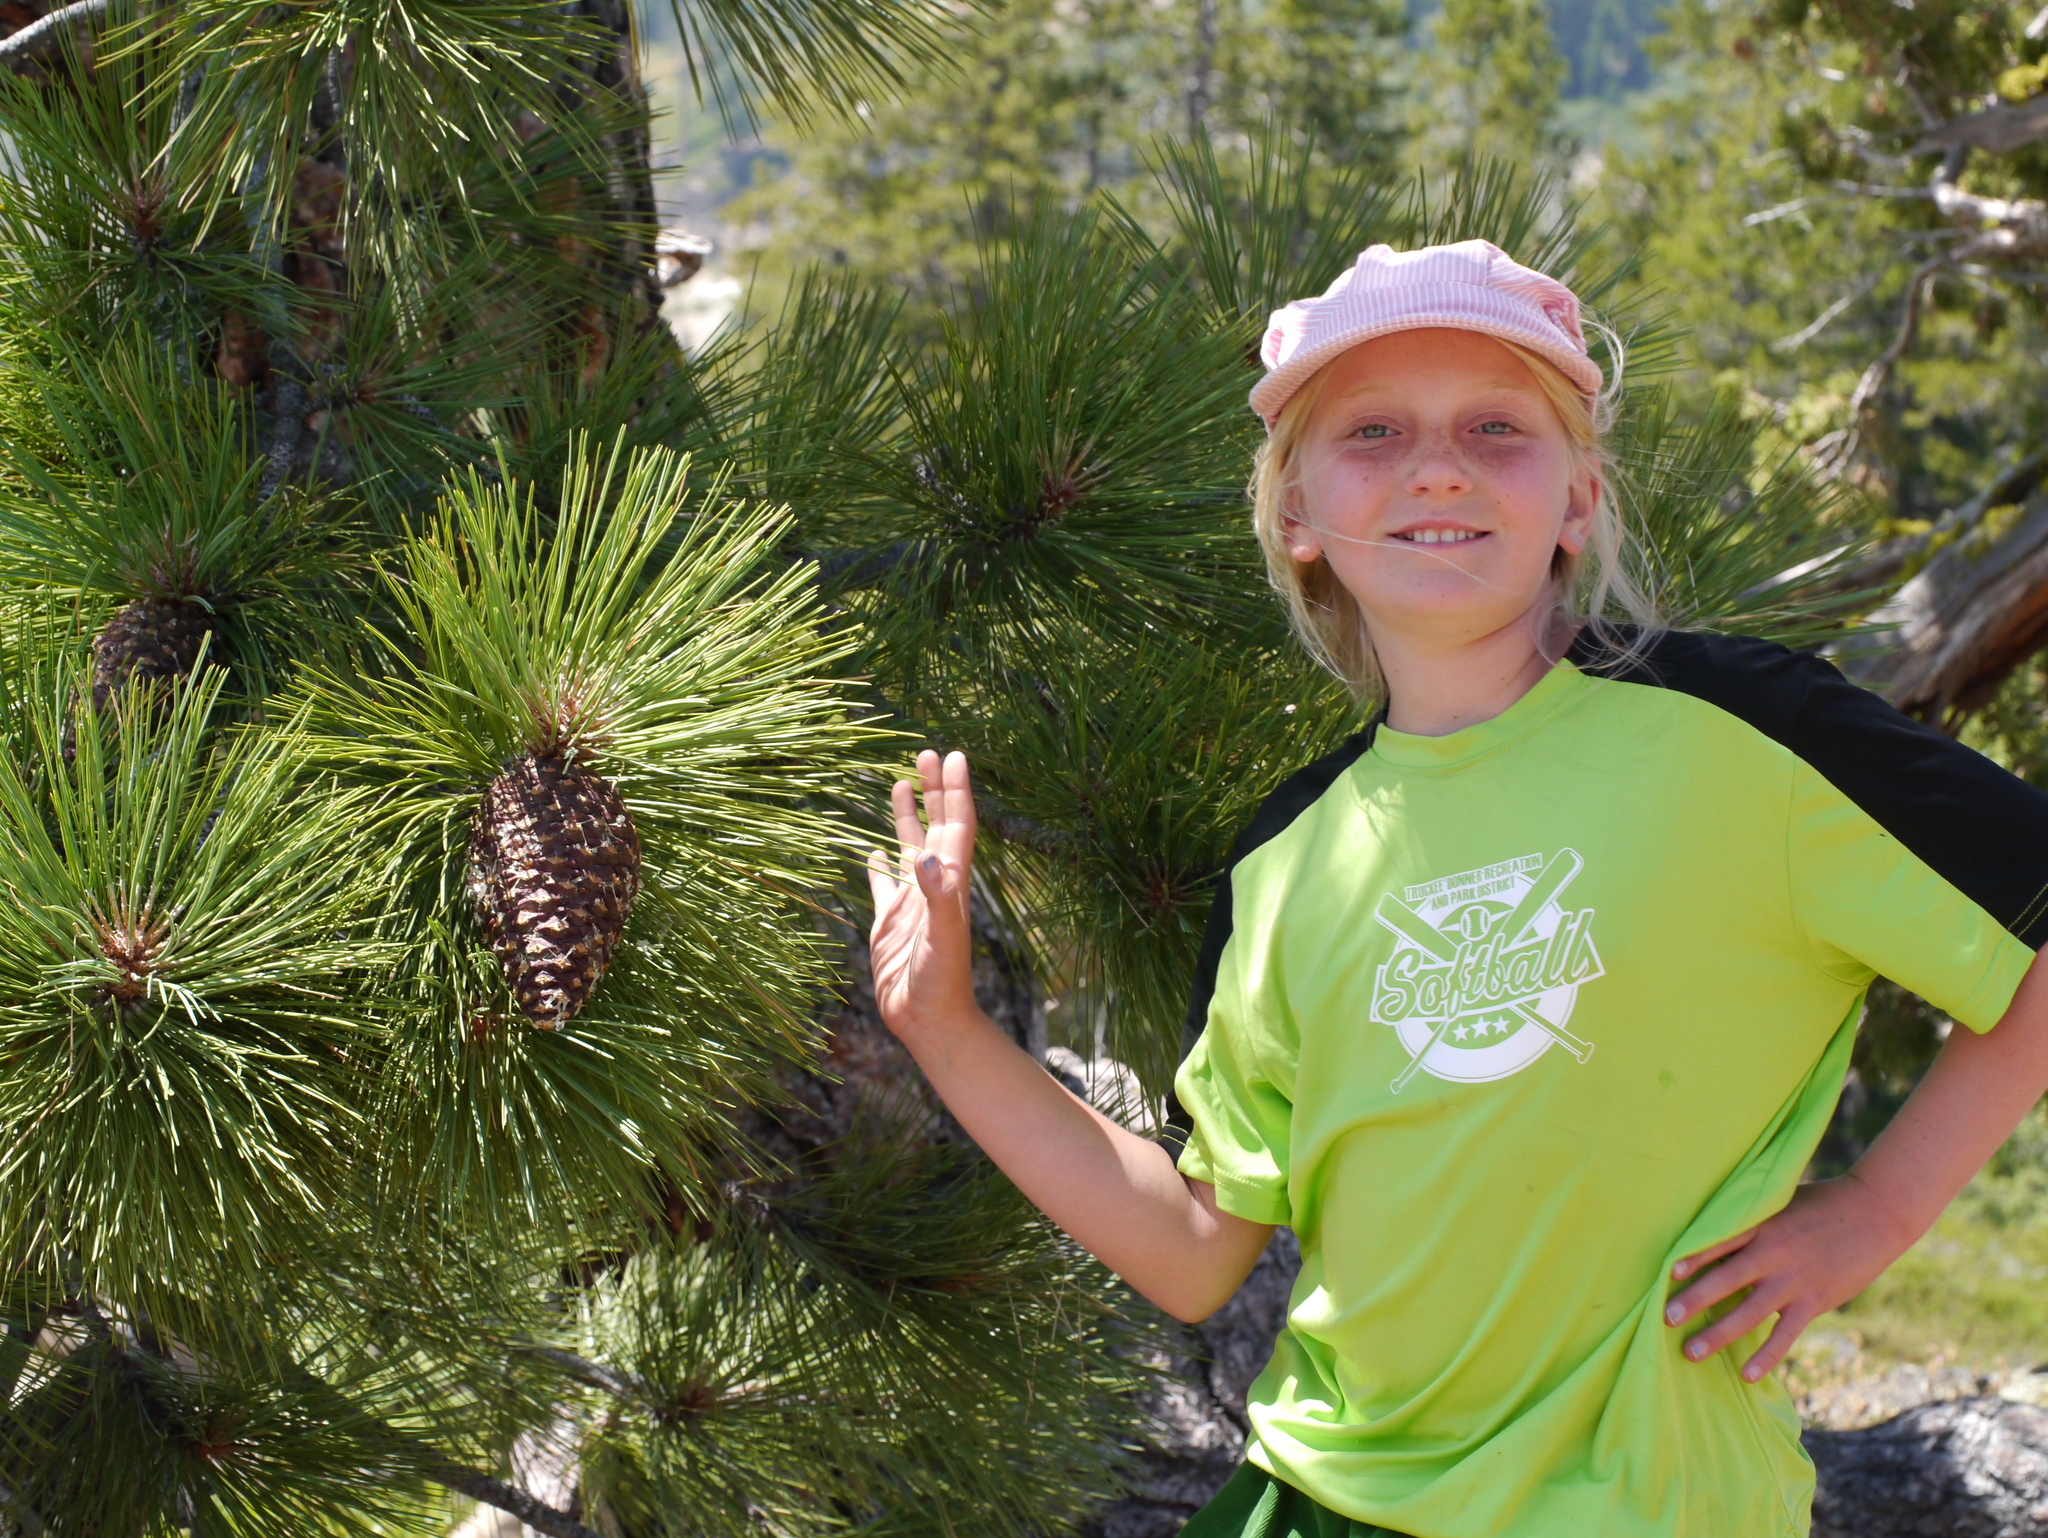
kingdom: Plantae
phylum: Tracheophyta
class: Pinopsida
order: Pinales
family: Pinaceae
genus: Pinus
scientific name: Pinus jeffreyi
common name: Jeffrey pine
